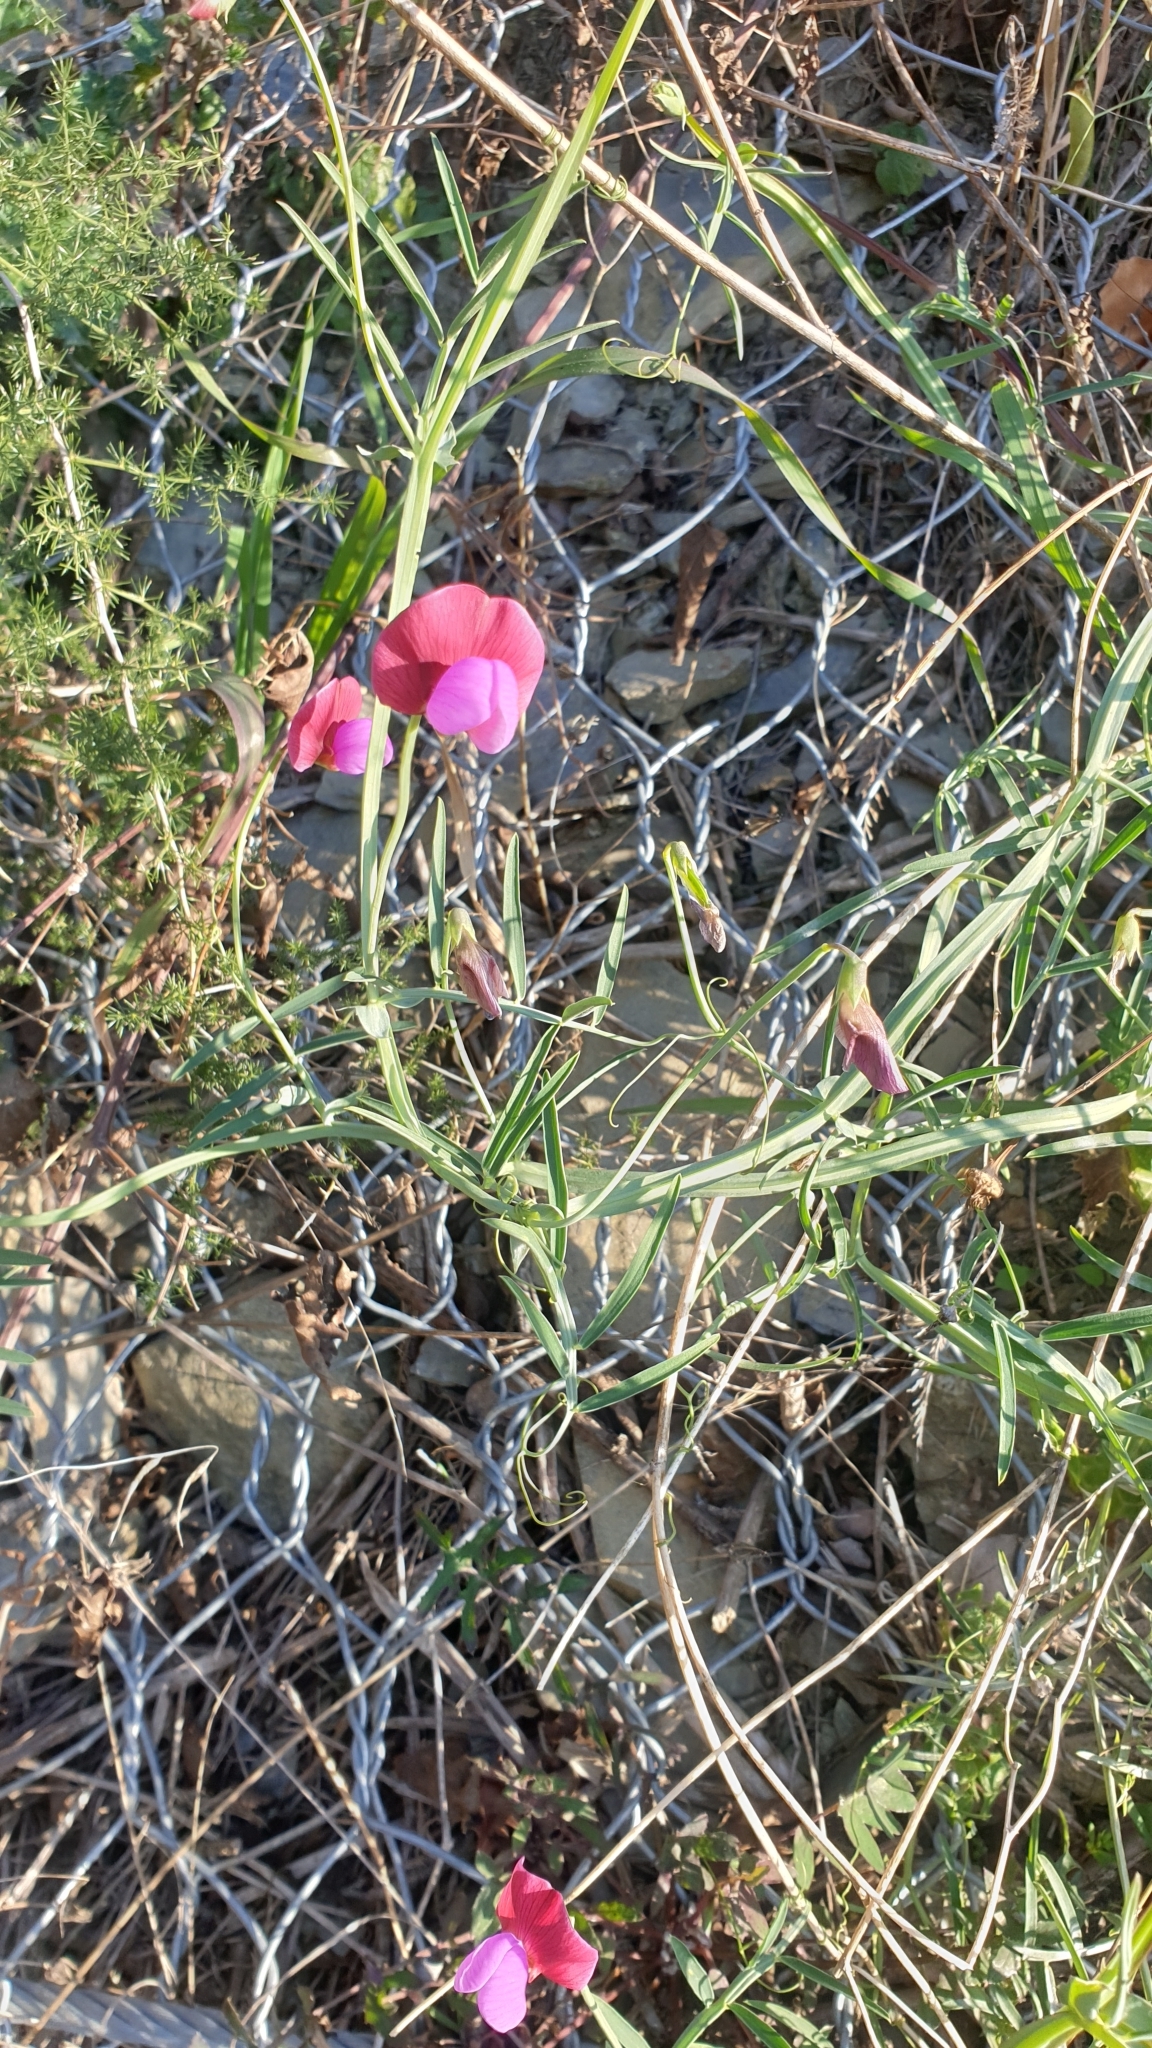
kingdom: Plantae
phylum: Tracheophyta
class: Magnoliopsida
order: Fabales
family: Fabaceae
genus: Lathyrus
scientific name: Lathyrus clymenum
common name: Spanish vetchling
